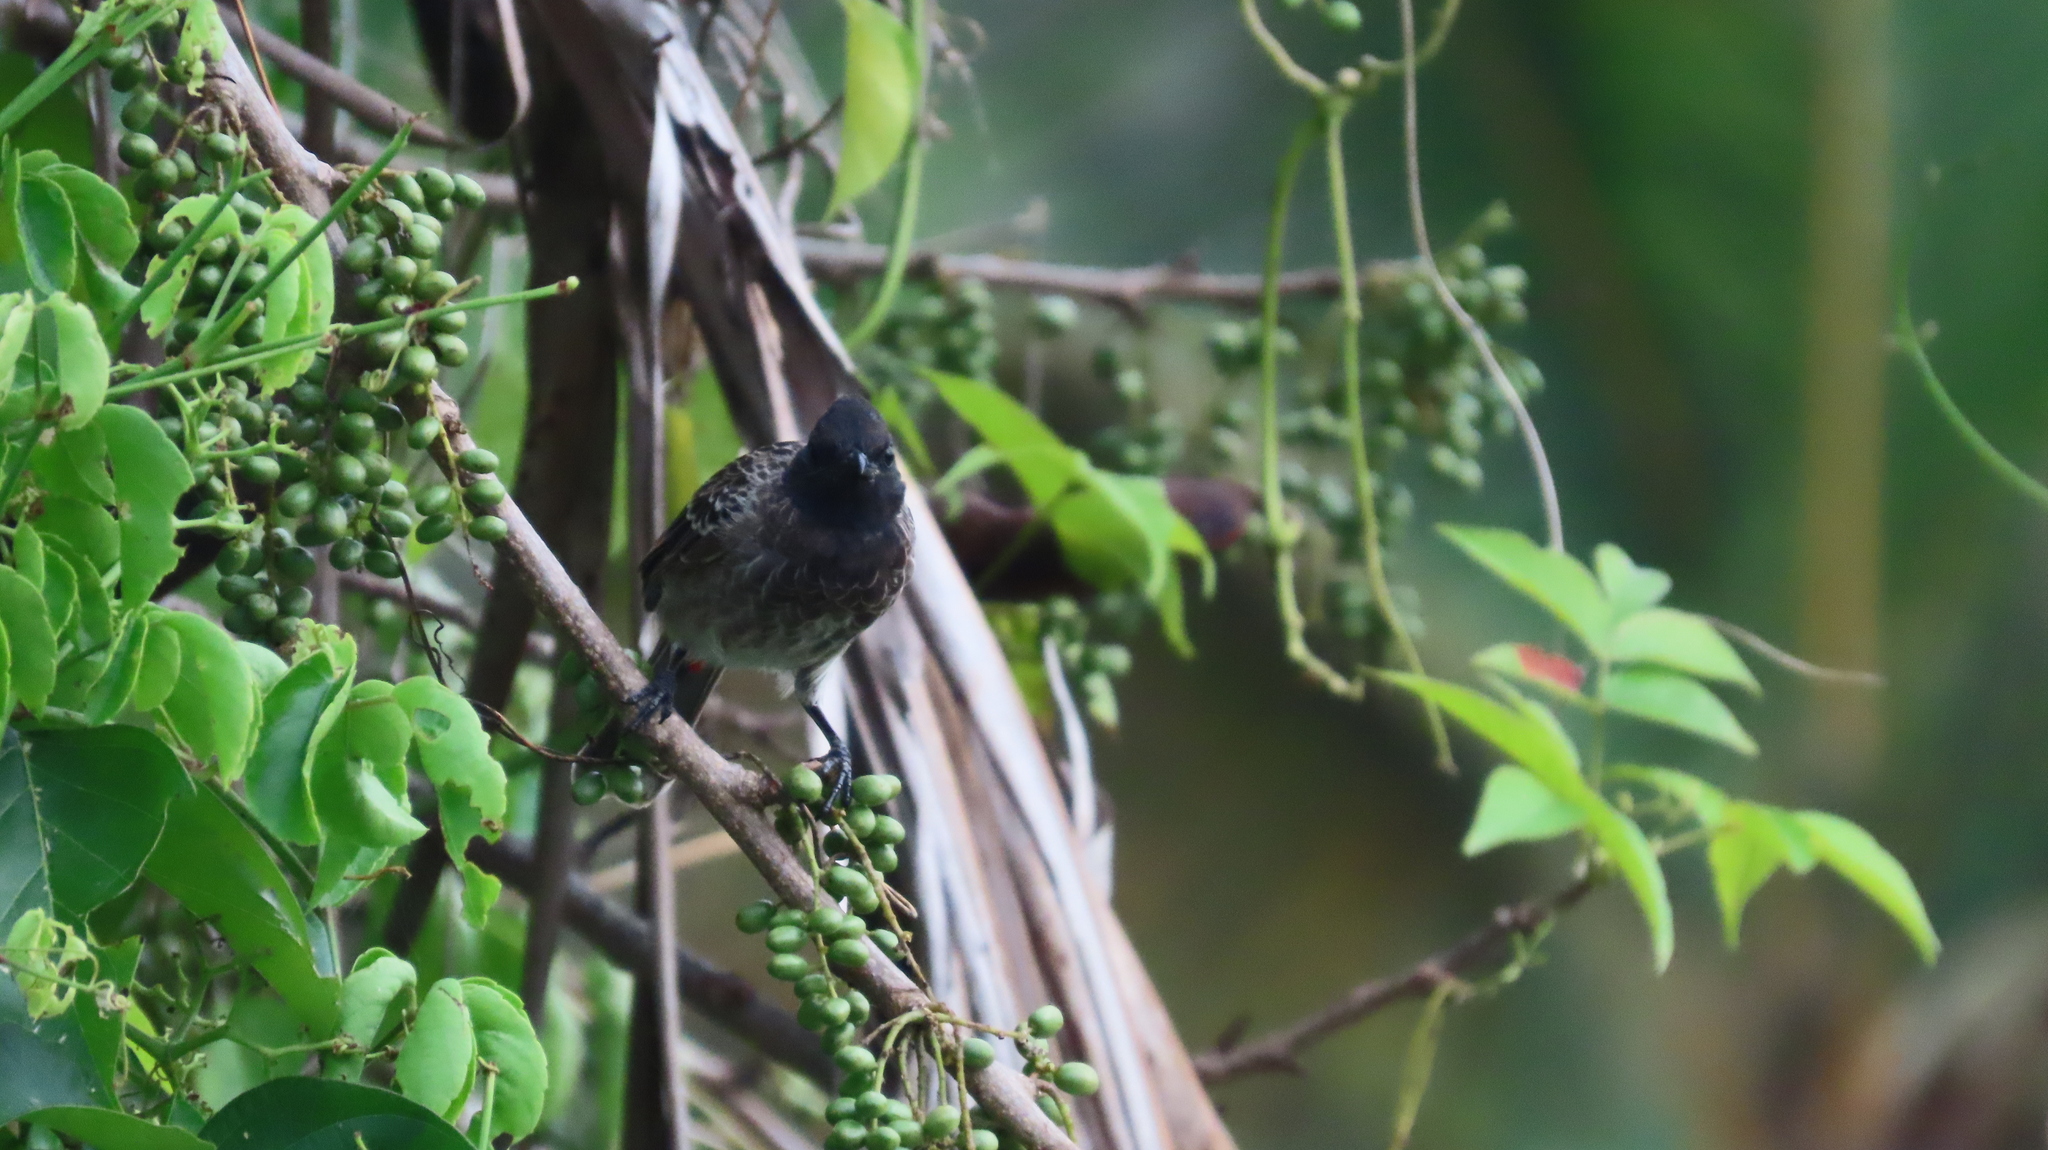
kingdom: Animalia
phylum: Chordata
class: Aves
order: Passeriformes
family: Pycnonotidae
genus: Pycnonotus
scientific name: Pycnonotus cafer
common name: Red-vented bulbul
